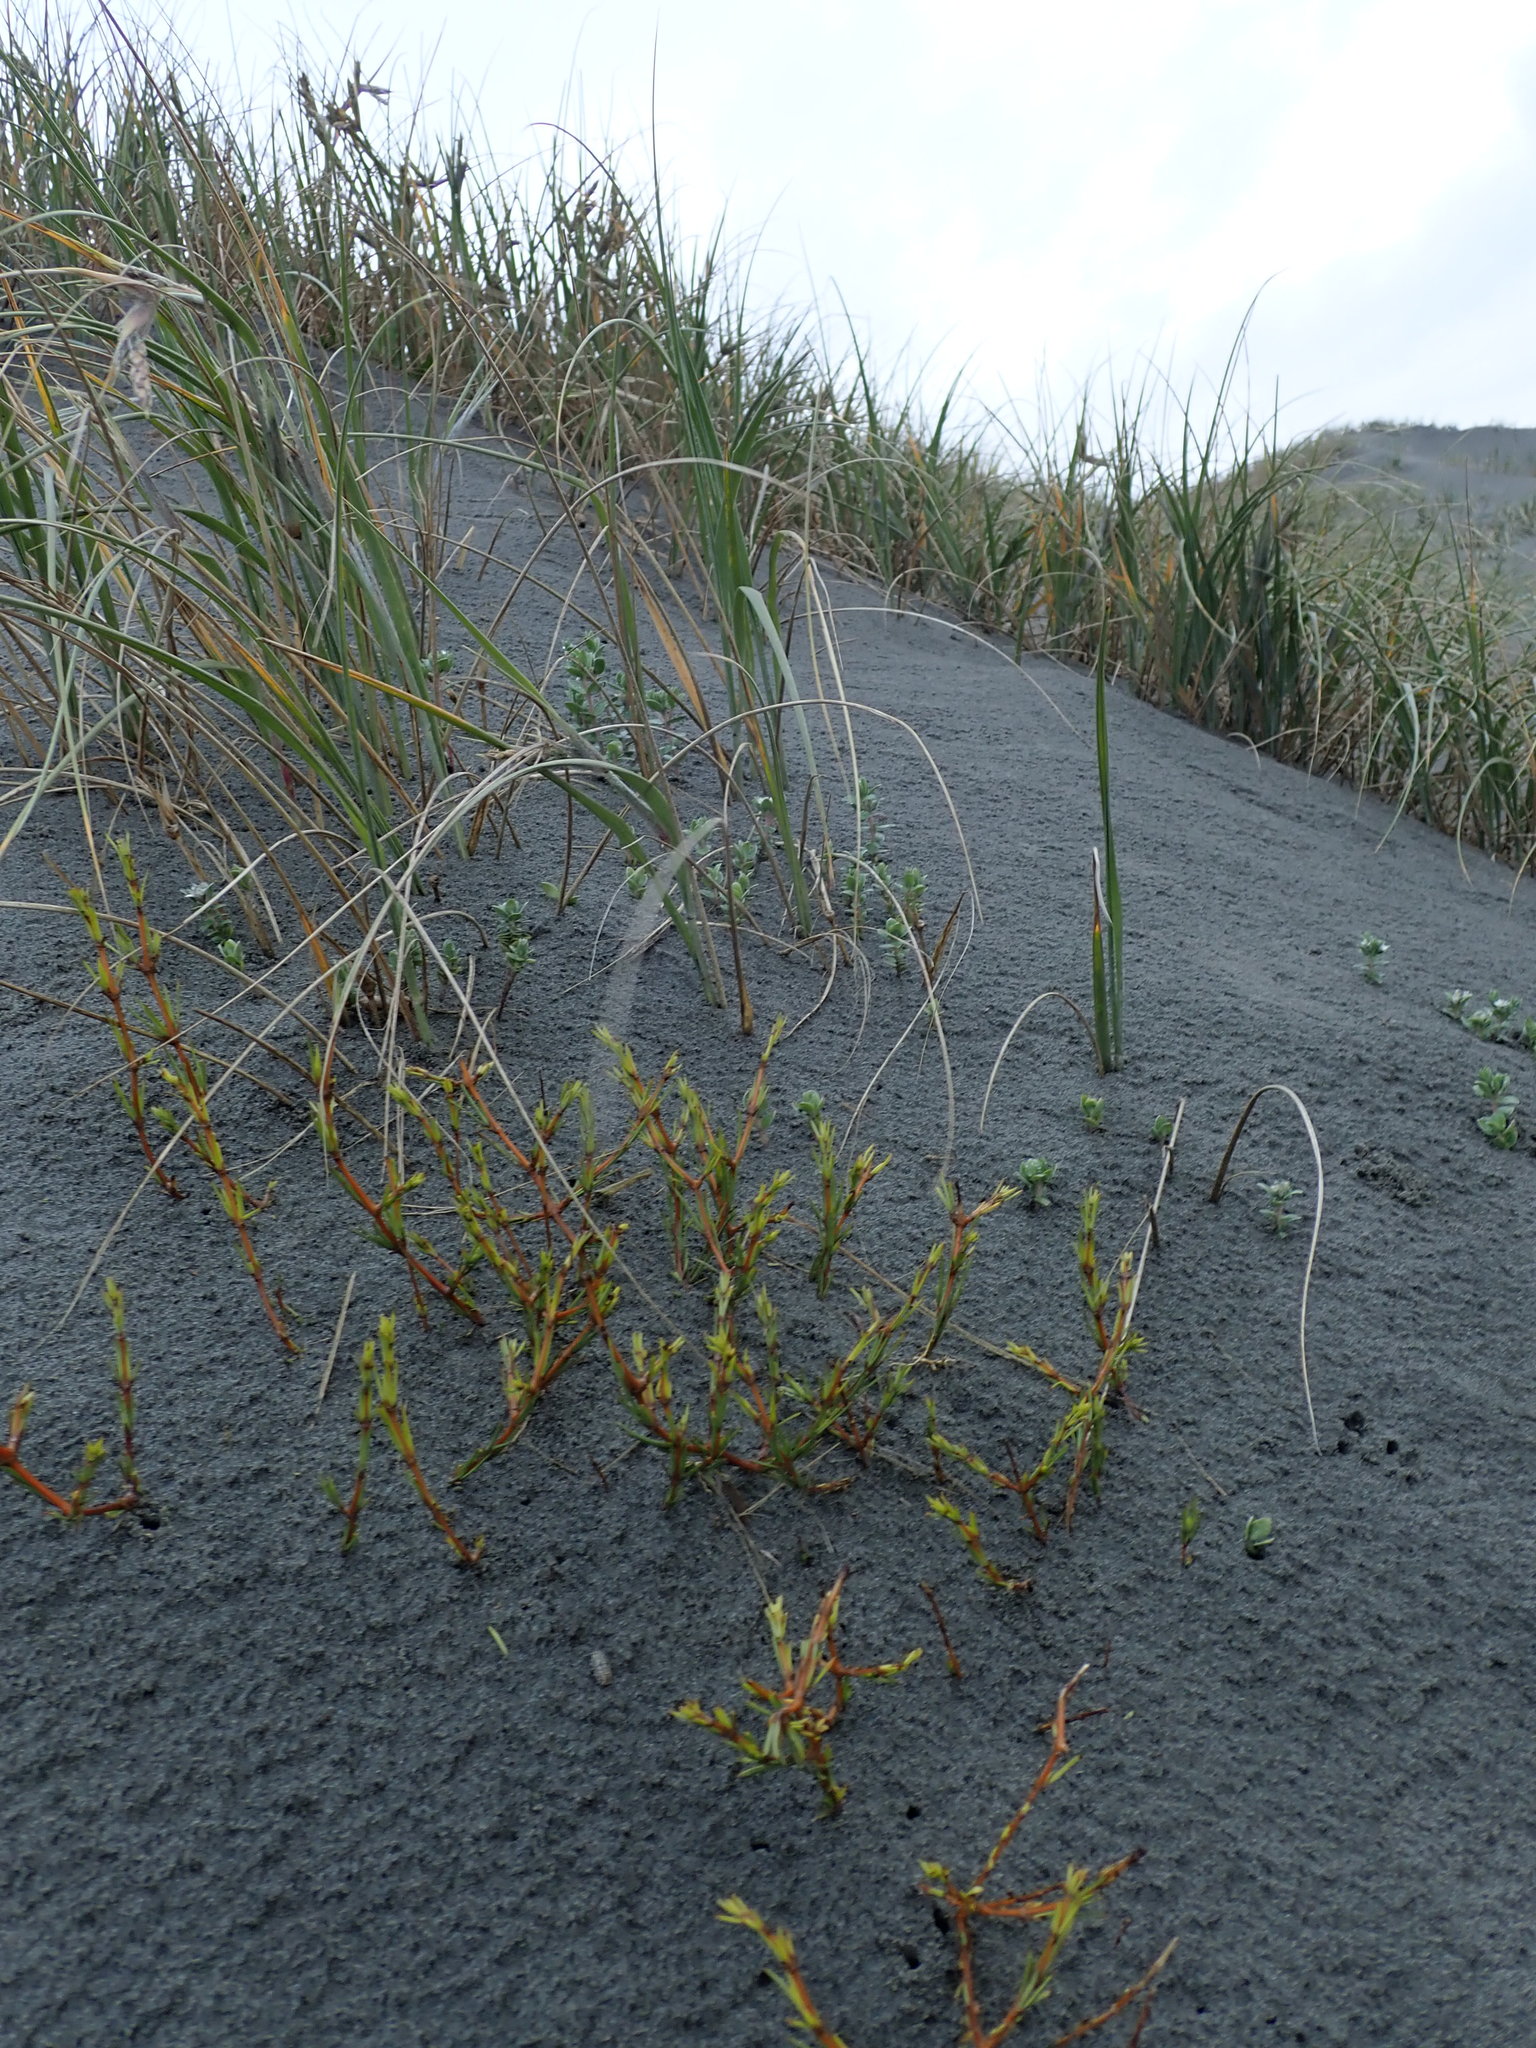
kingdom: Plantae
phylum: Tracheophyta
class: Magnoliopsida
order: Gentianales
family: Rubiaceae
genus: Coprosma
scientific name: Coprosma acerosa
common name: Sand coprosma
